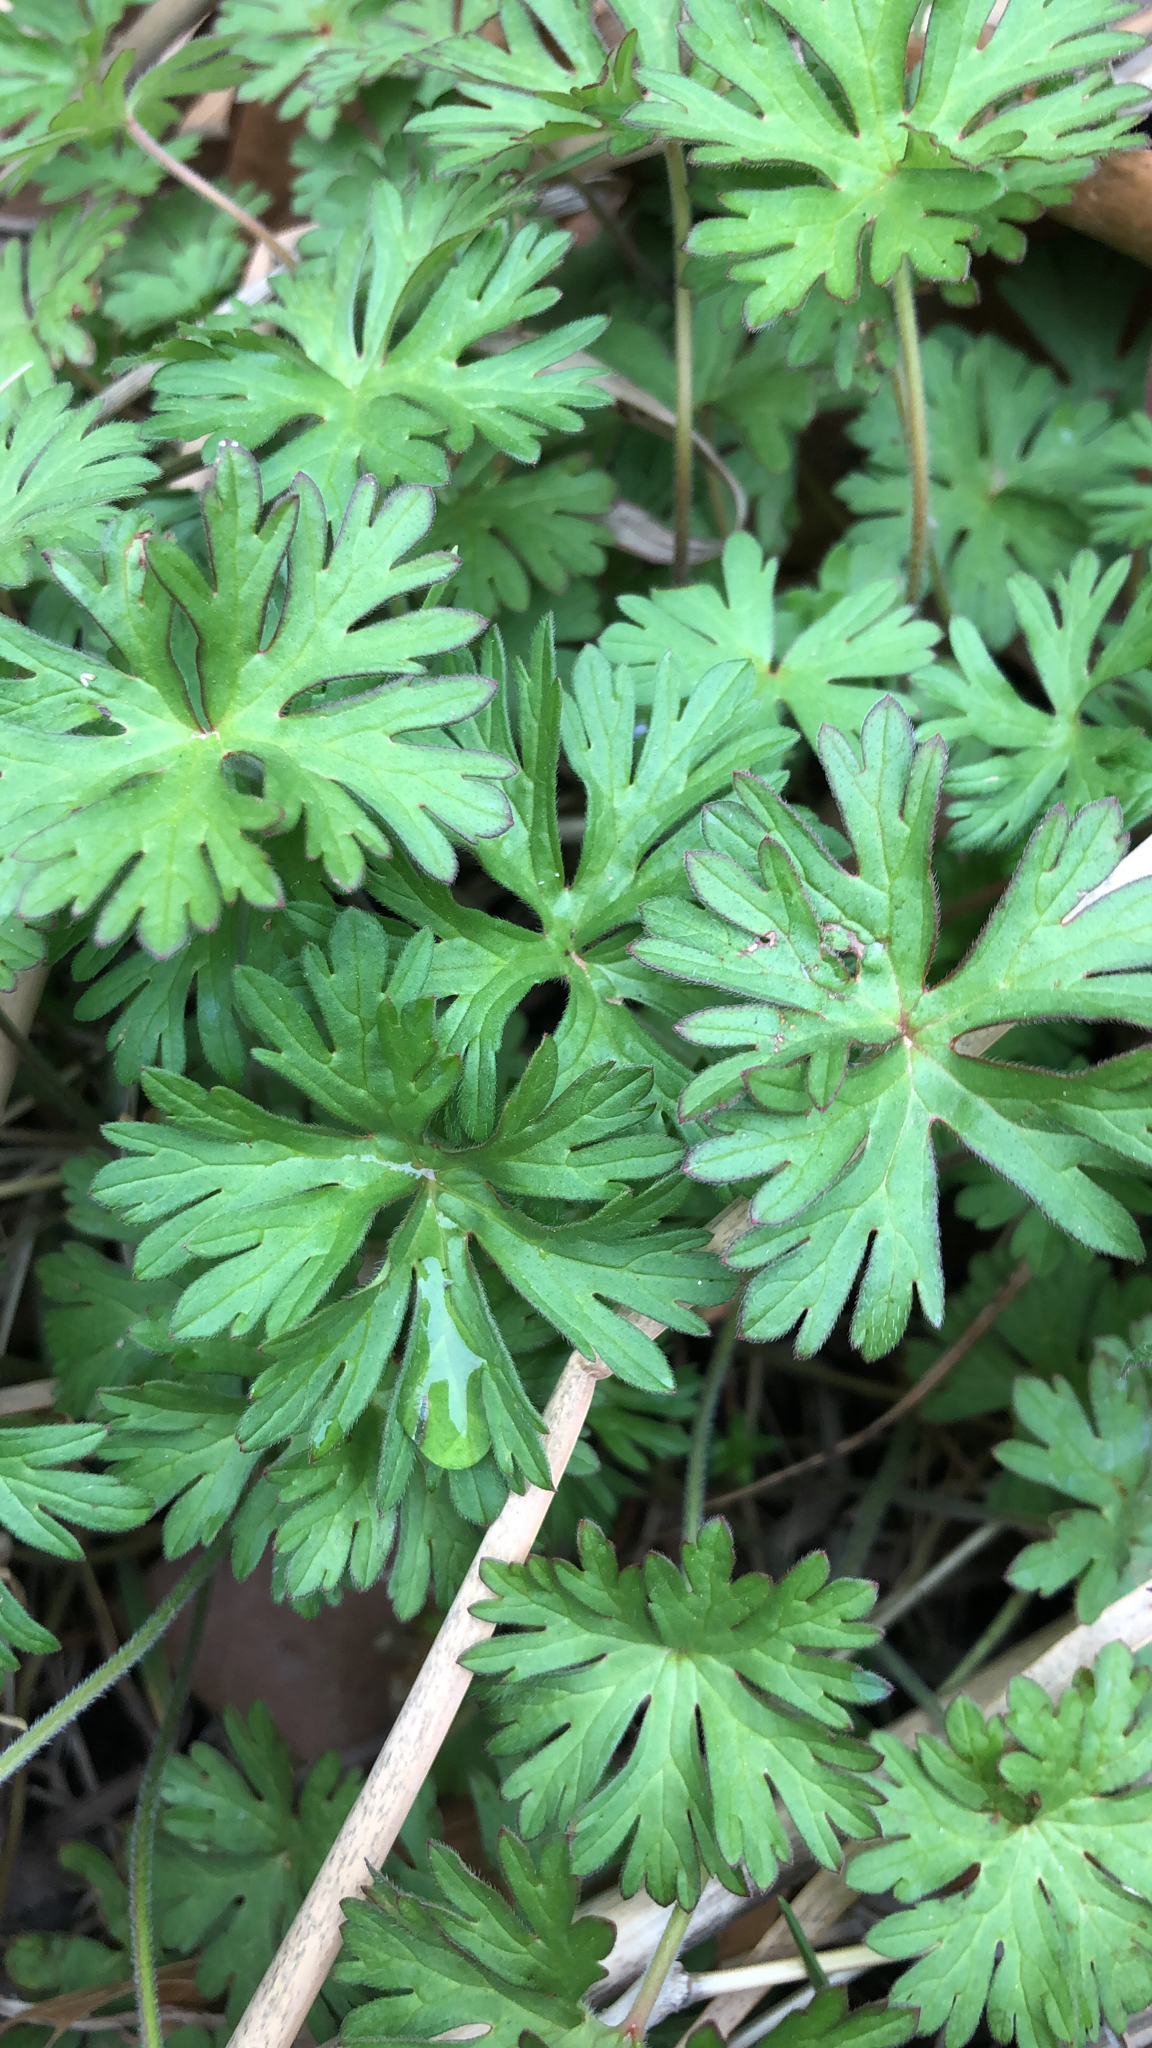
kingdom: Plantae
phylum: Tracheophyta
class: Magnoliopsida
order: Geraniales
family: Geraniaceae
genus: Geranium
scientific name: Geranium carolinianum
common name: Carolina crane's-bill
